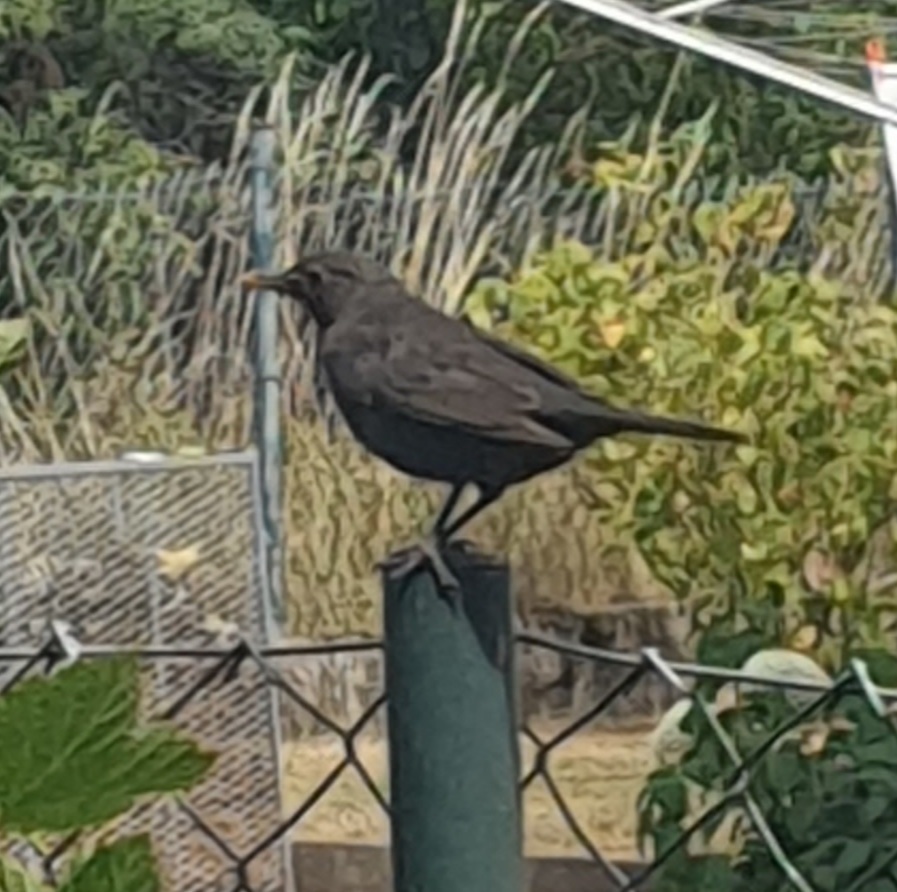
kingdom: Animalia
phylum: Chordata
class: Aves
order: Passeriformes
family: Turdidae
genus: Turdus
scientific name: Turdus merula
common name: Common blackbird
